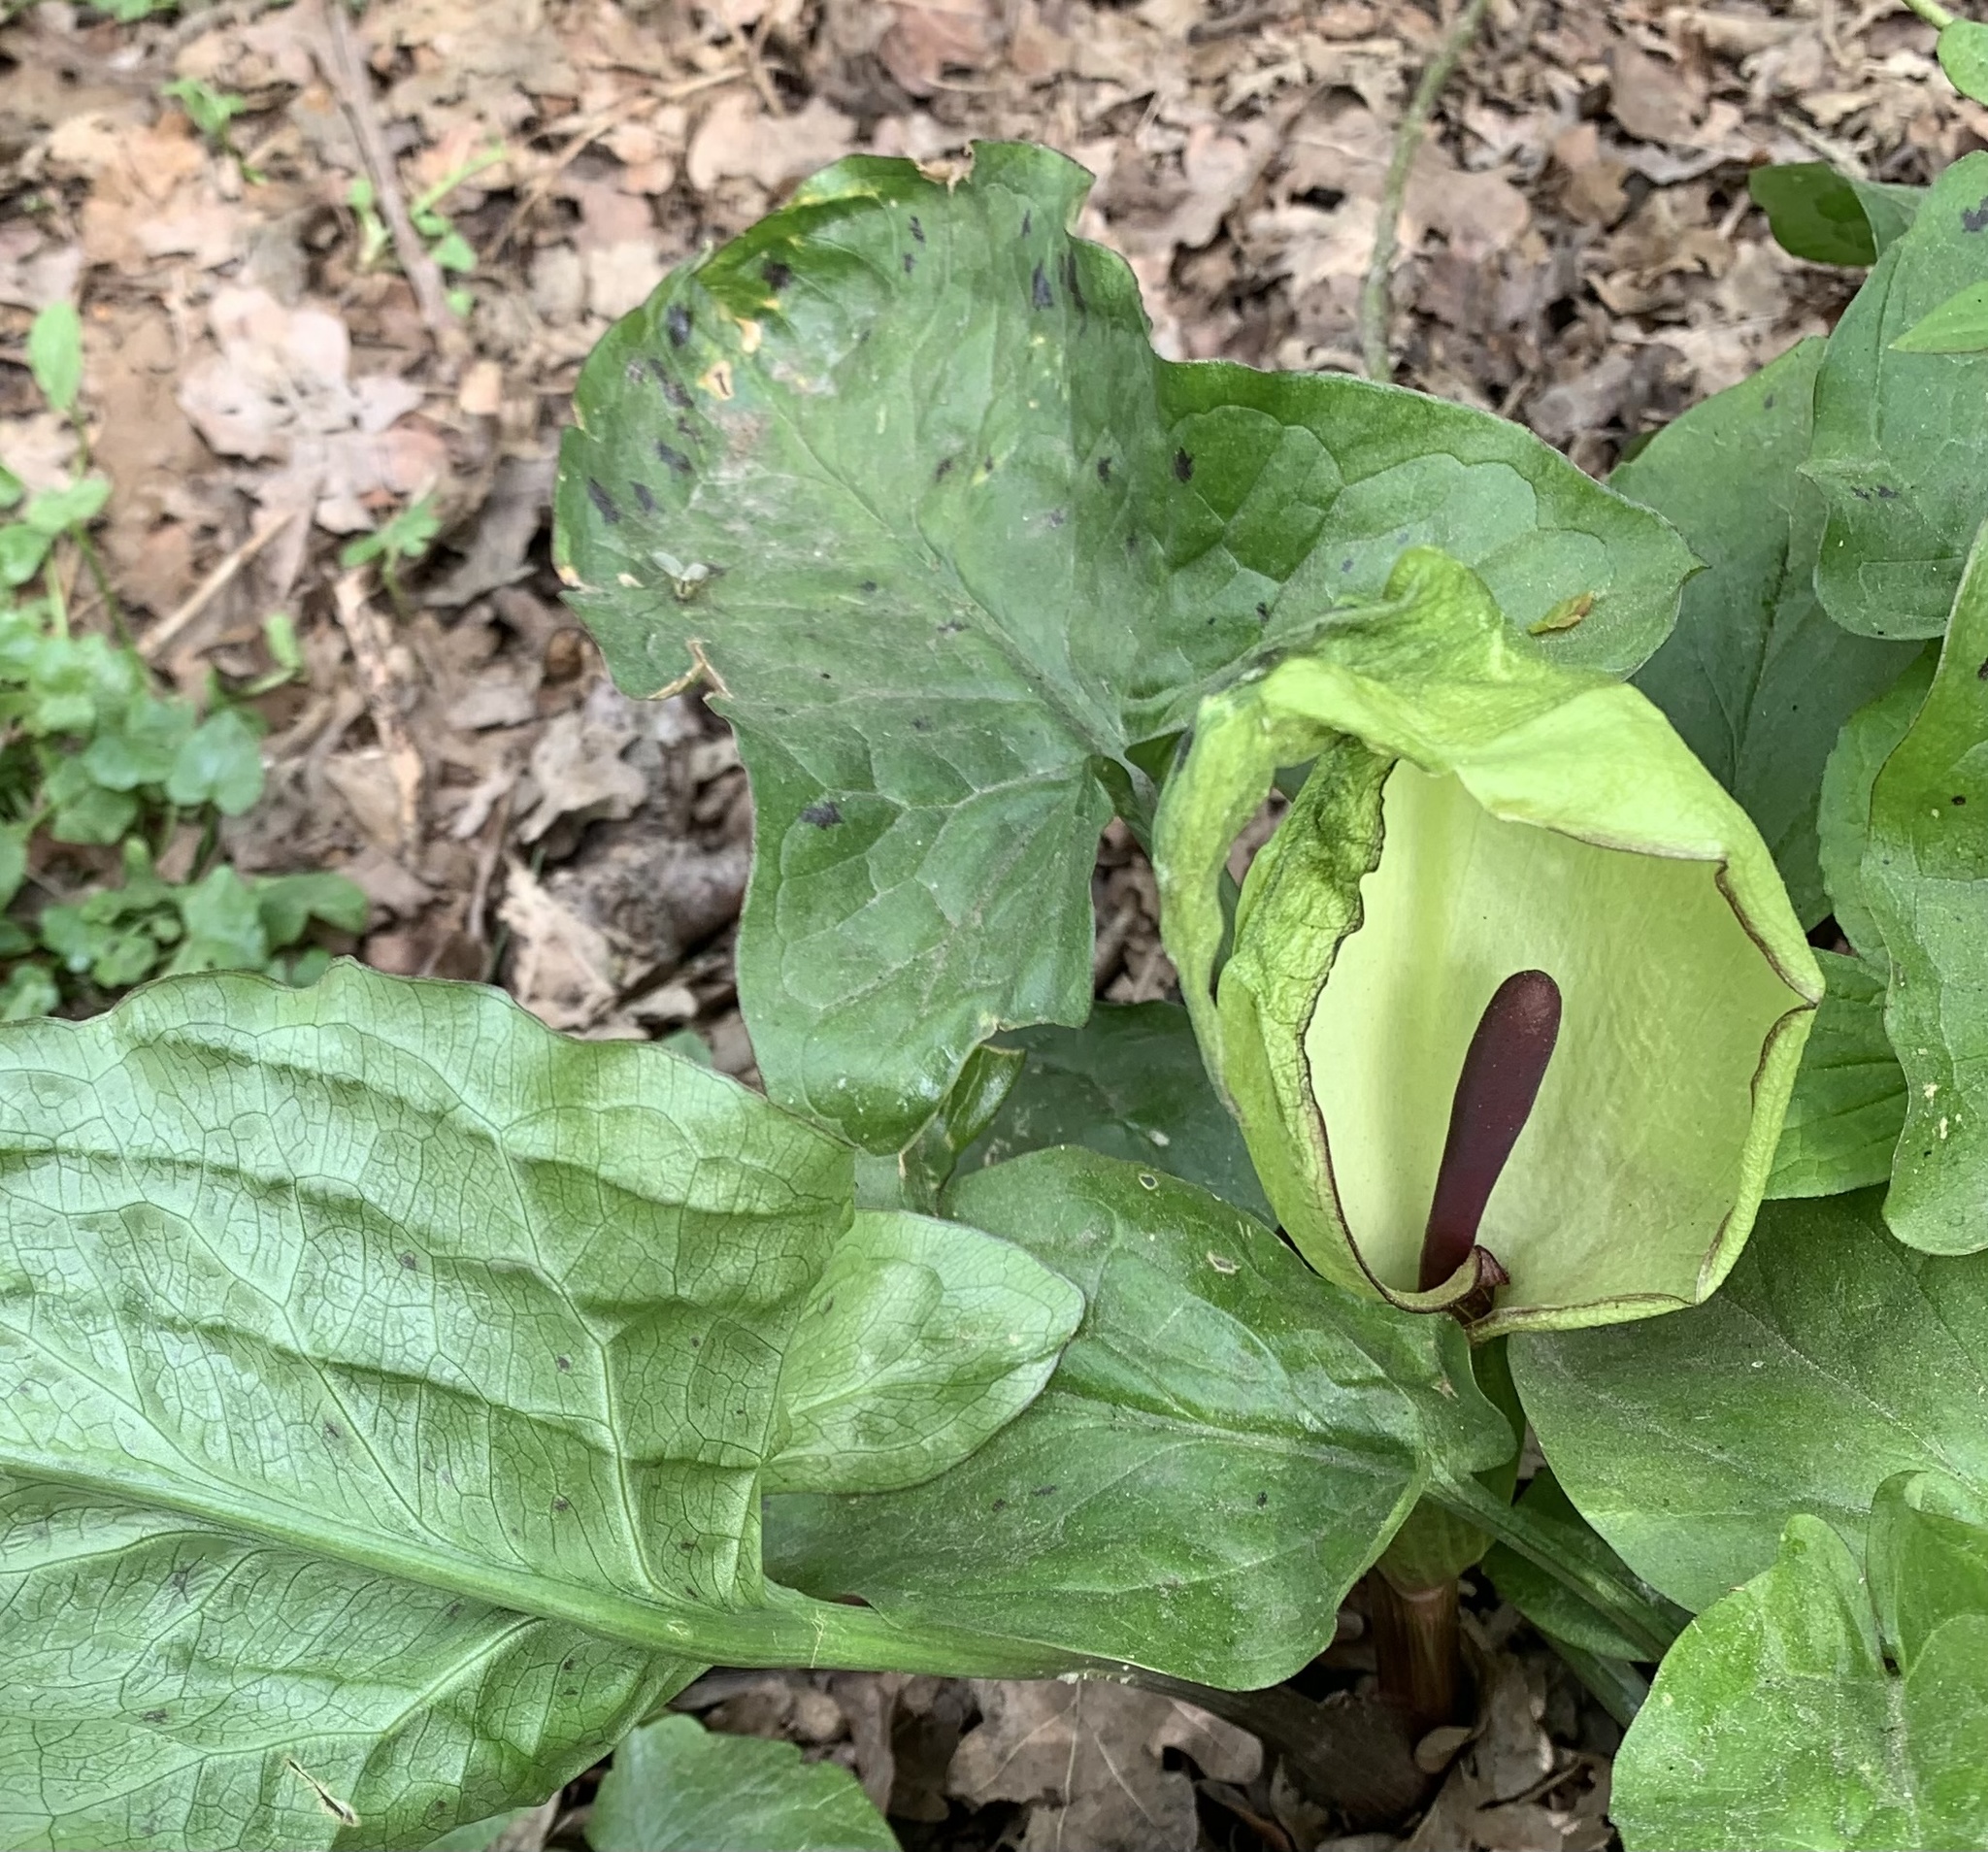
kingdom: Plantae
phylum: Tracheophyta
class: Liliopsida
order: Alismatales
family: Araceae
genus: Arum
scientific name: Arum maculatum
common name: Lords-and-ladies
